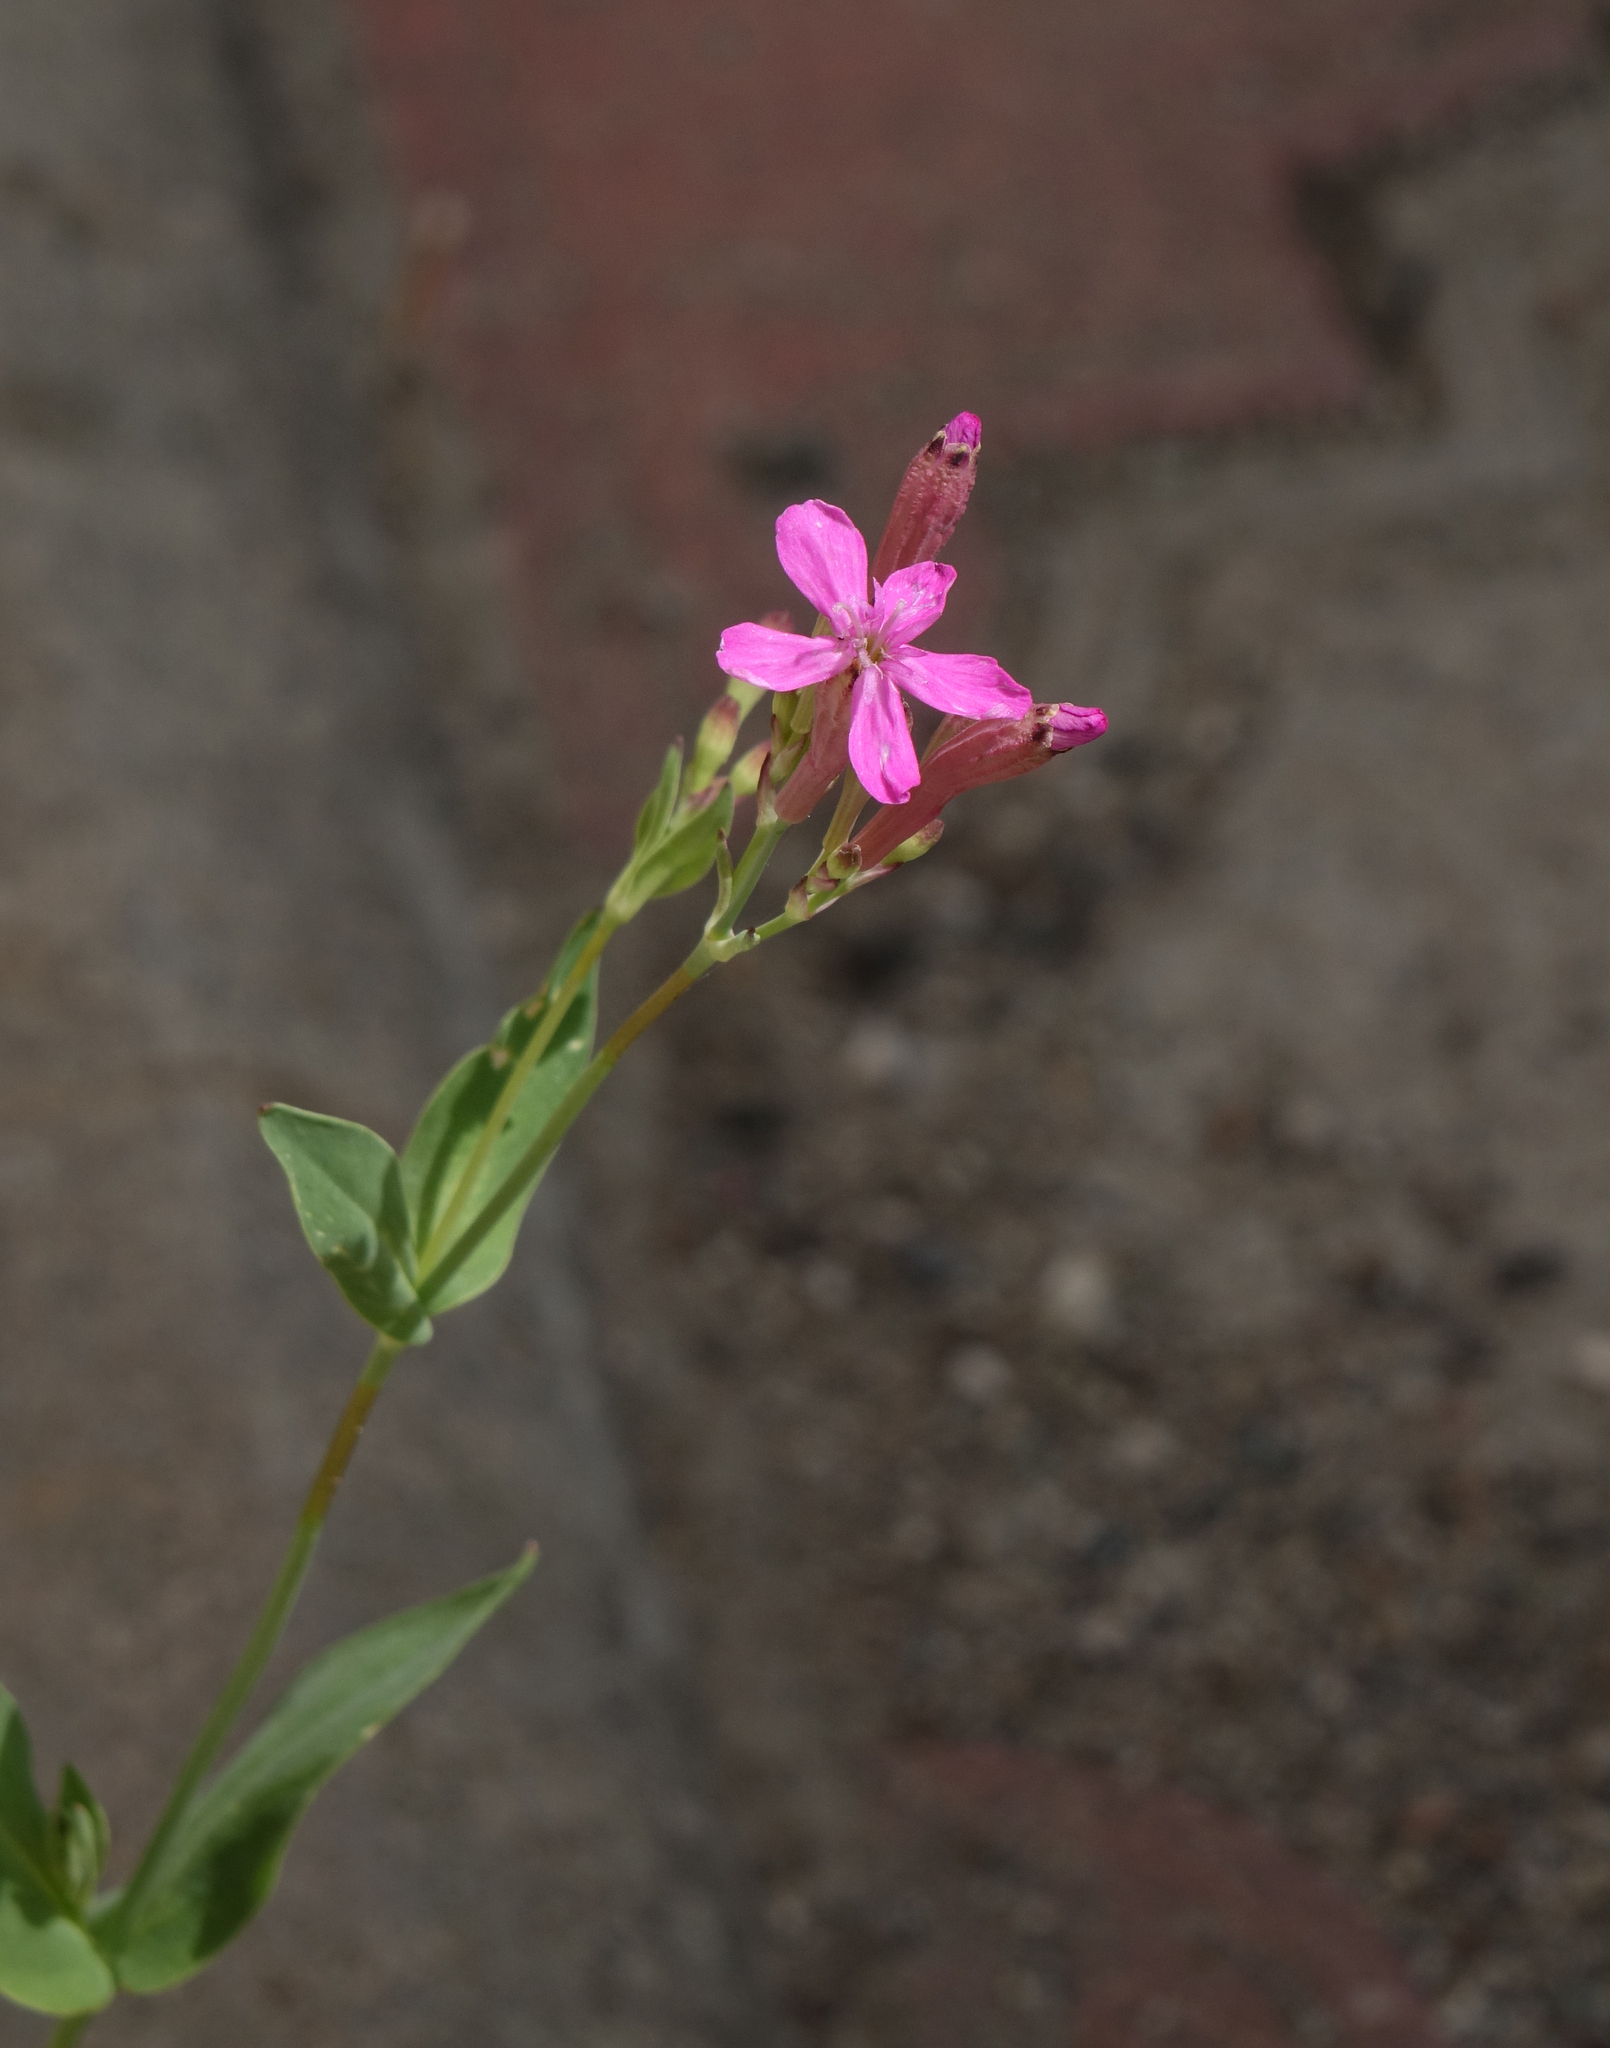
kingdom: Plantae
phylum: Tracheophyta
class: Magnoliopsida
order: Caryophyllales
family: Caryophyllaceae
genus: Atocion
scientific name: Atocion armeria
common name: Sweet william catchfly
